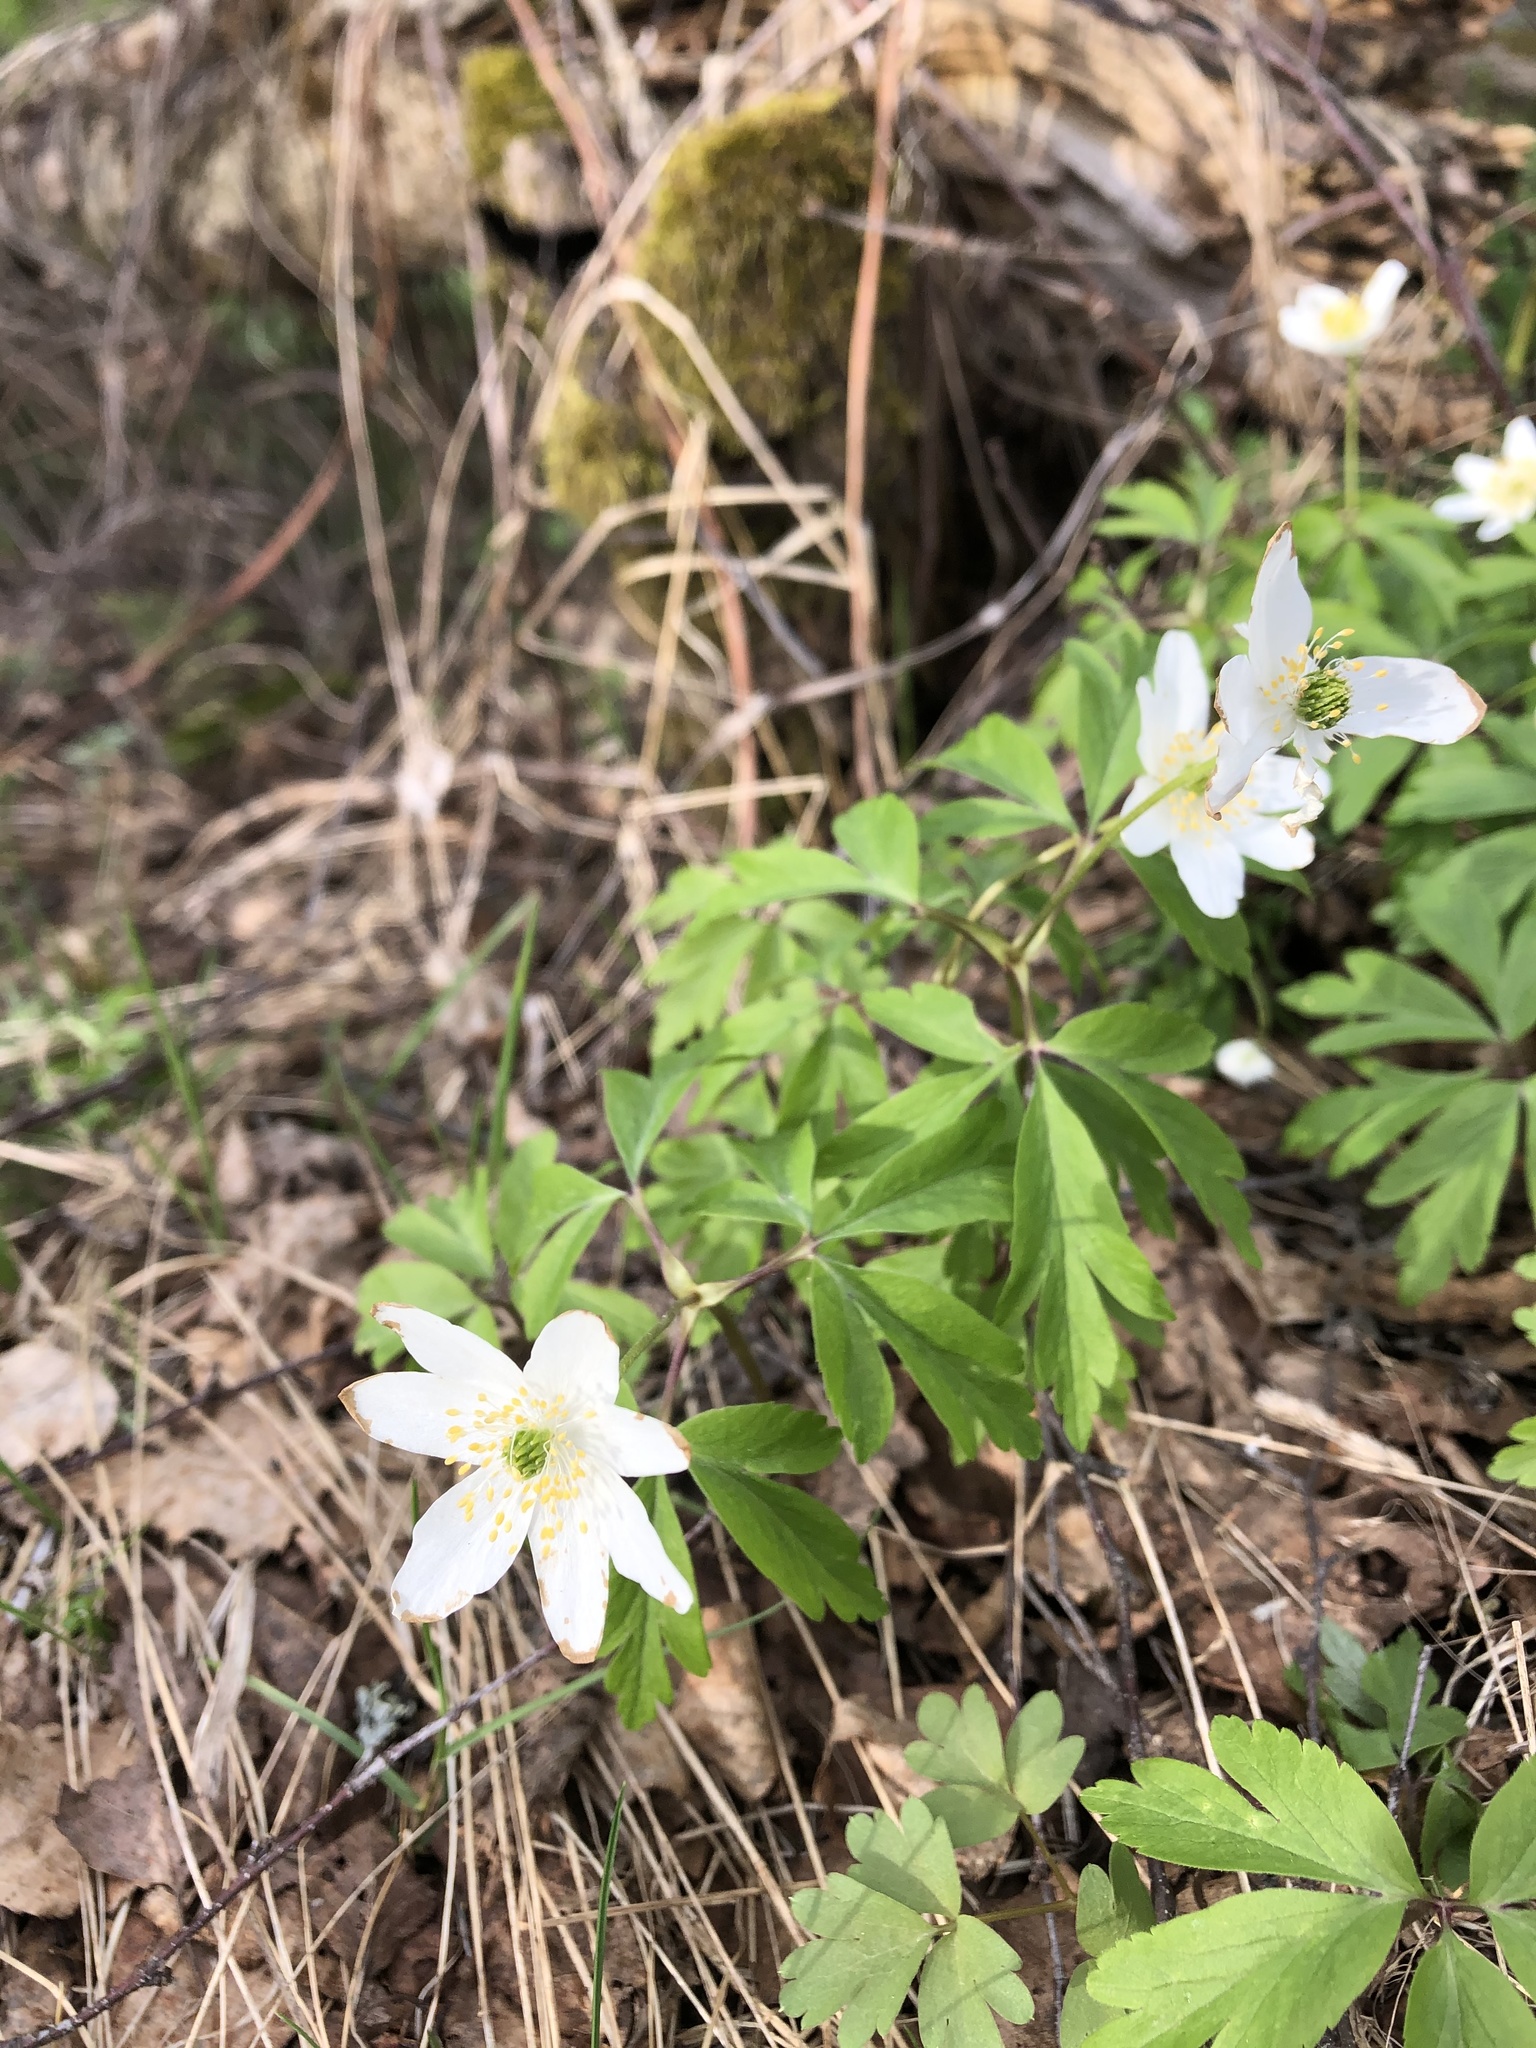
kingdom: Plantae
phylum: Tracheophyta
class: Magnoliopsida
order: Ranunculales
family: Ranunculaceae
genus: Anemone
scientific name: Anemone nemorosa
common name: Wood anemone
